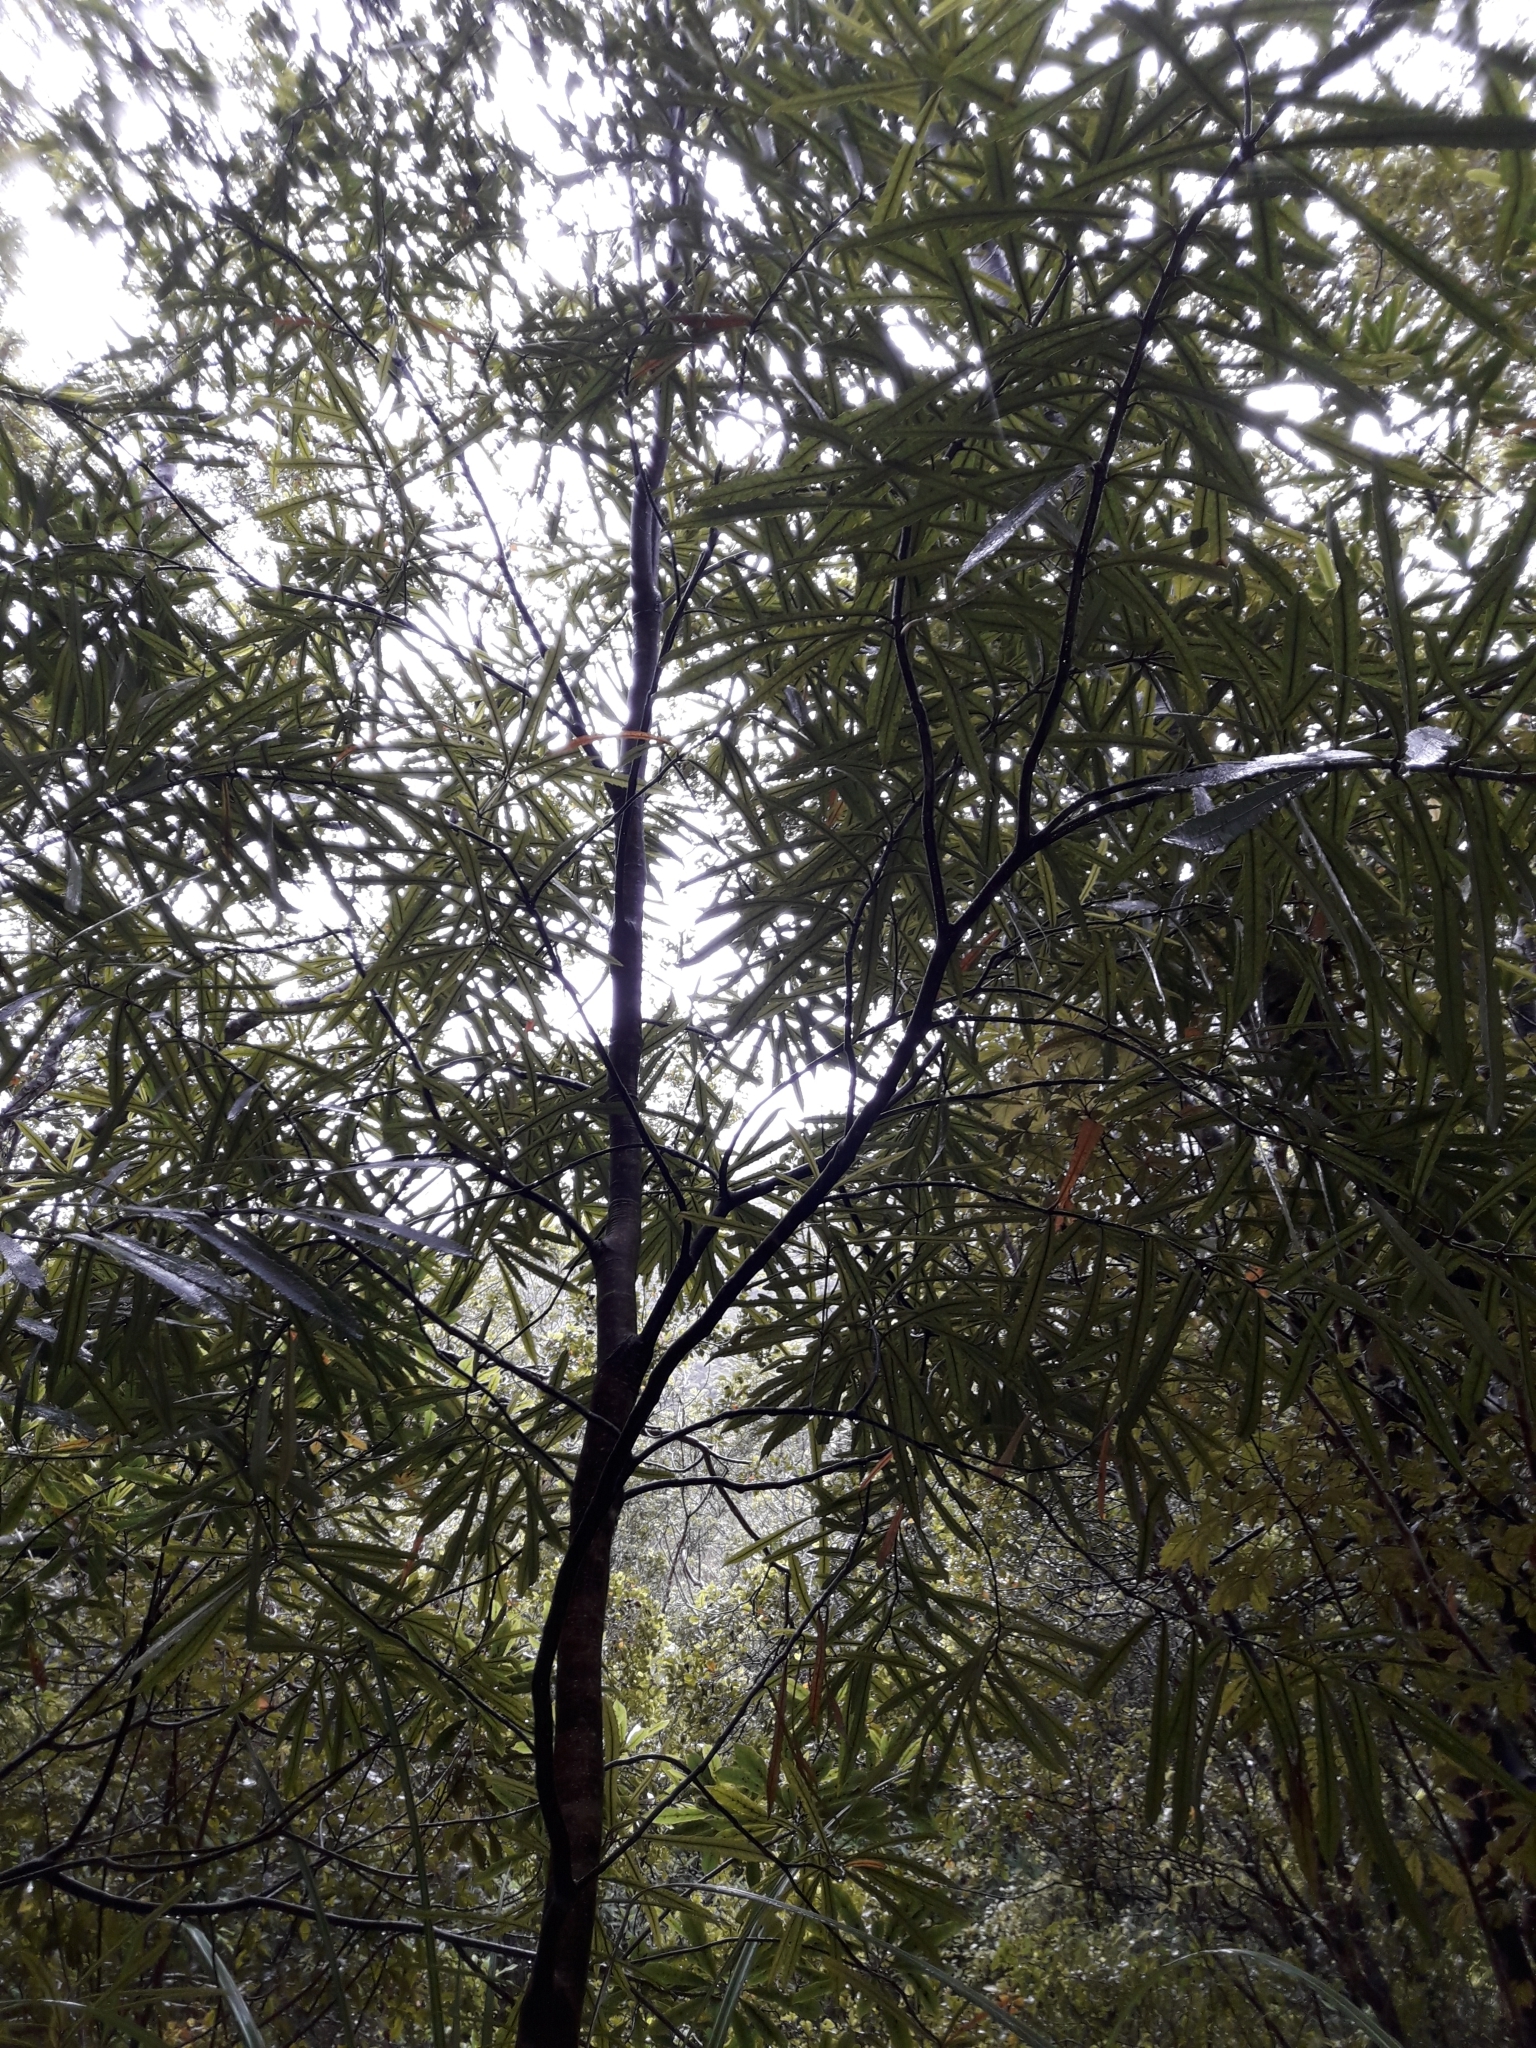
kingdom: Plantae
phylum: Tracheophyta
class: Magnoliopsida
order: Crossosomatales
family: Ixerbaceae
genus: Ixerba
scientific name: Ixerba brexioides
